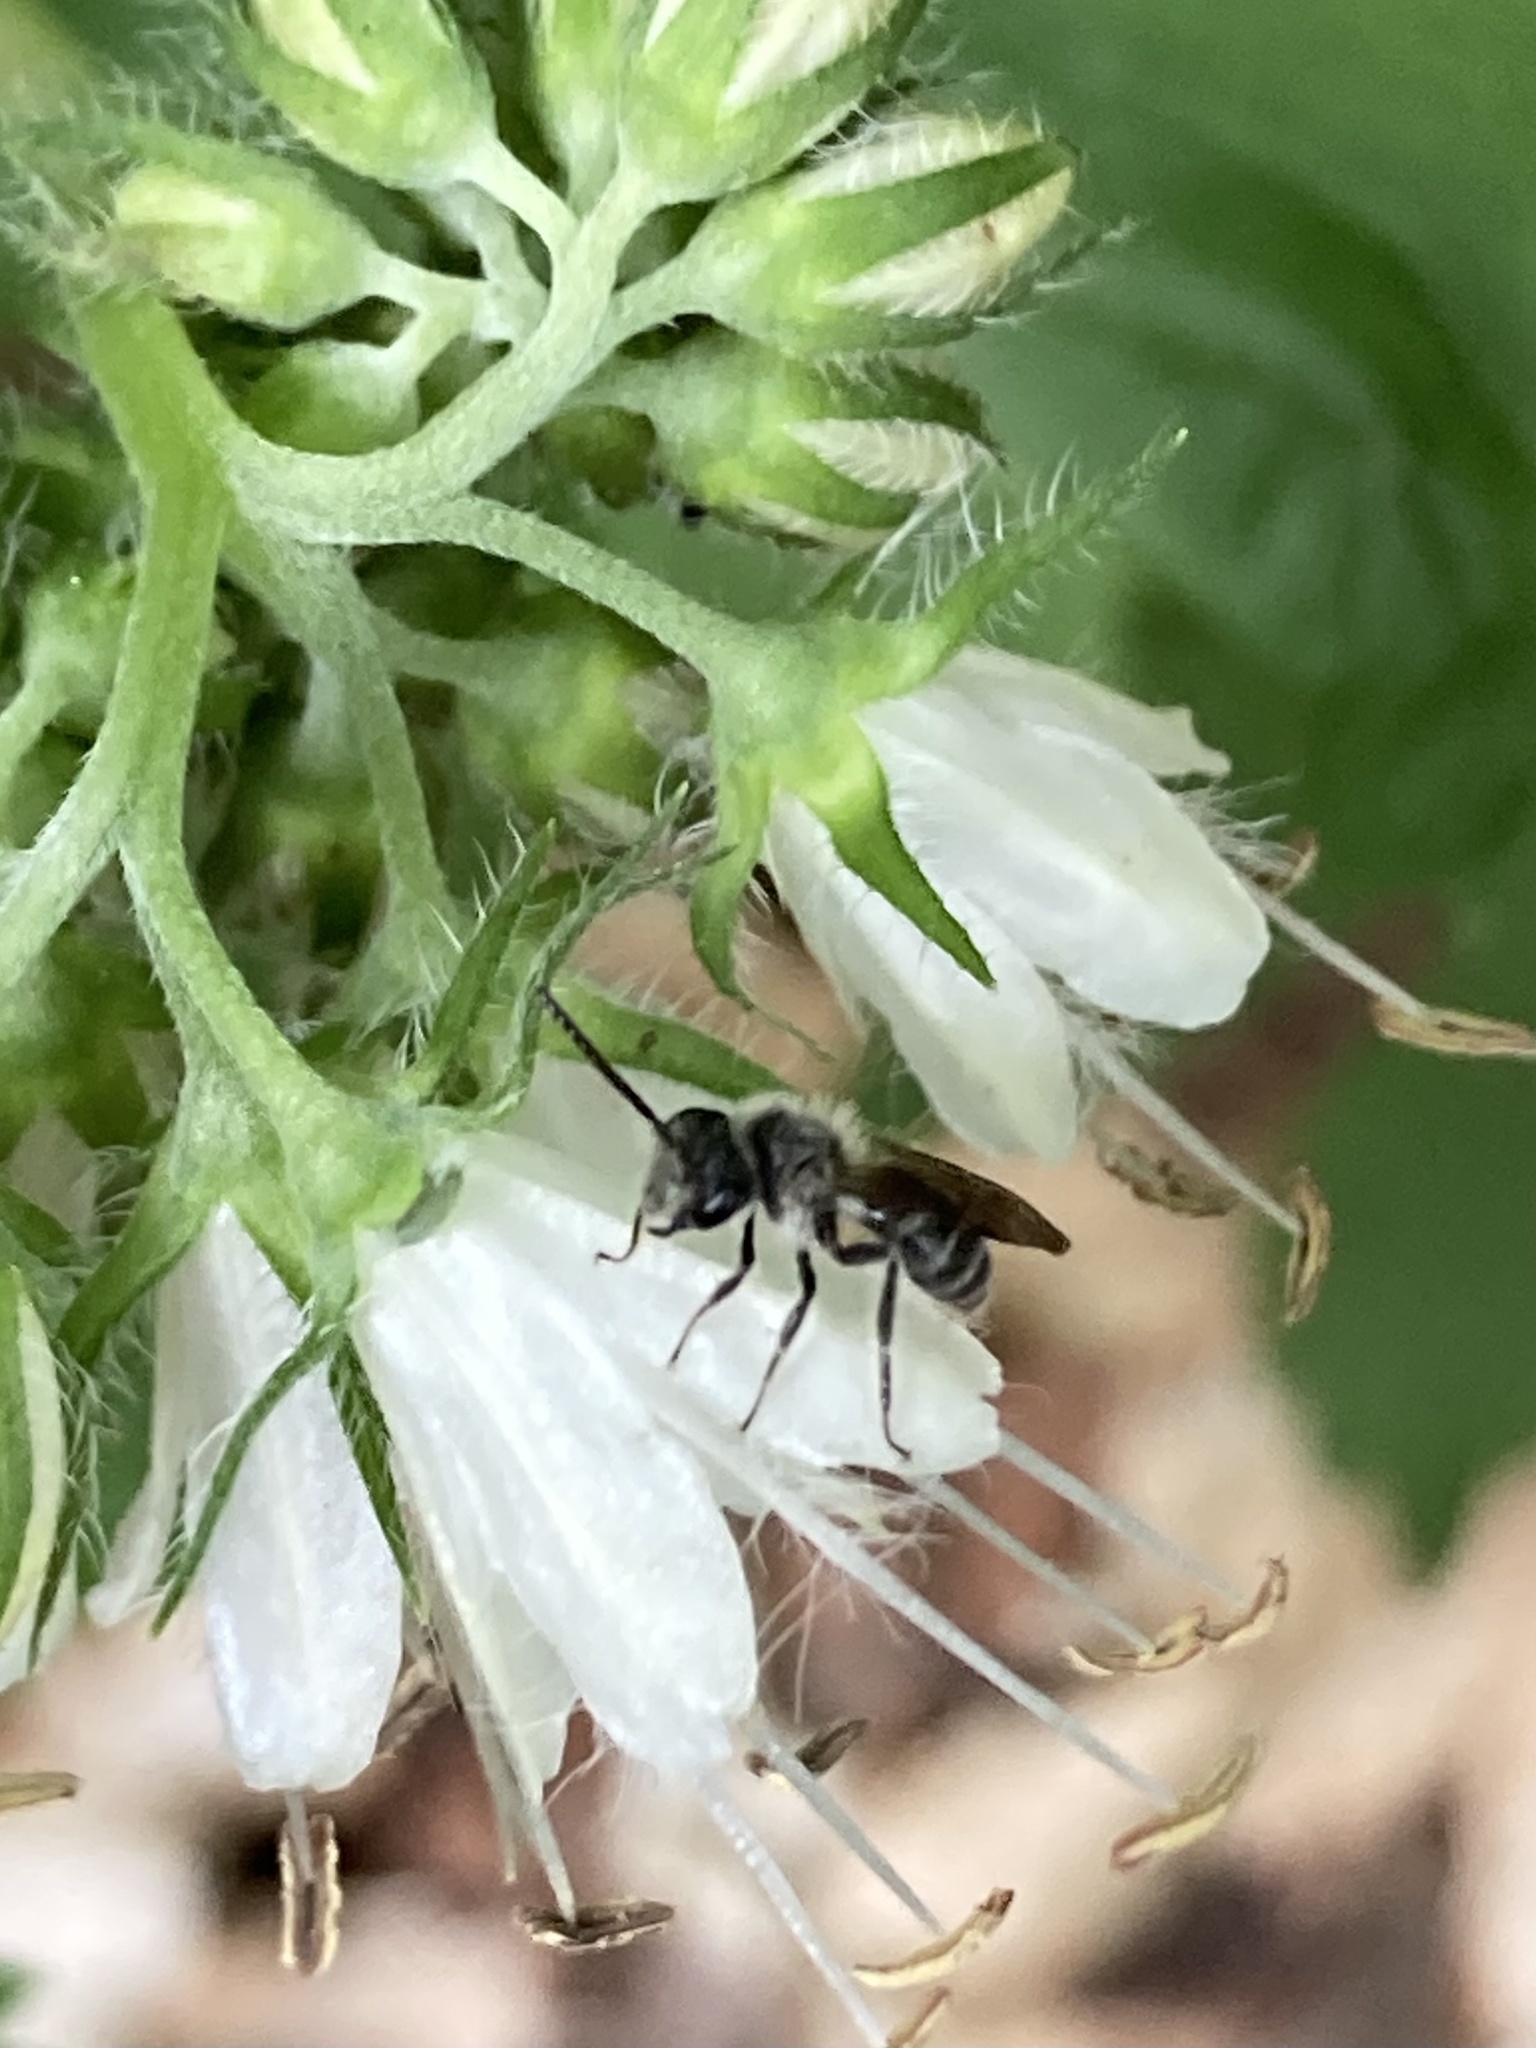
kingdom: Animalia
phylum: Arthropoda
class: Insecta
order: Hymenoptera
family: Andrenidae
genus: Andrena
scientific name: Andrena geranii
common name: Waterleaf mining bee
